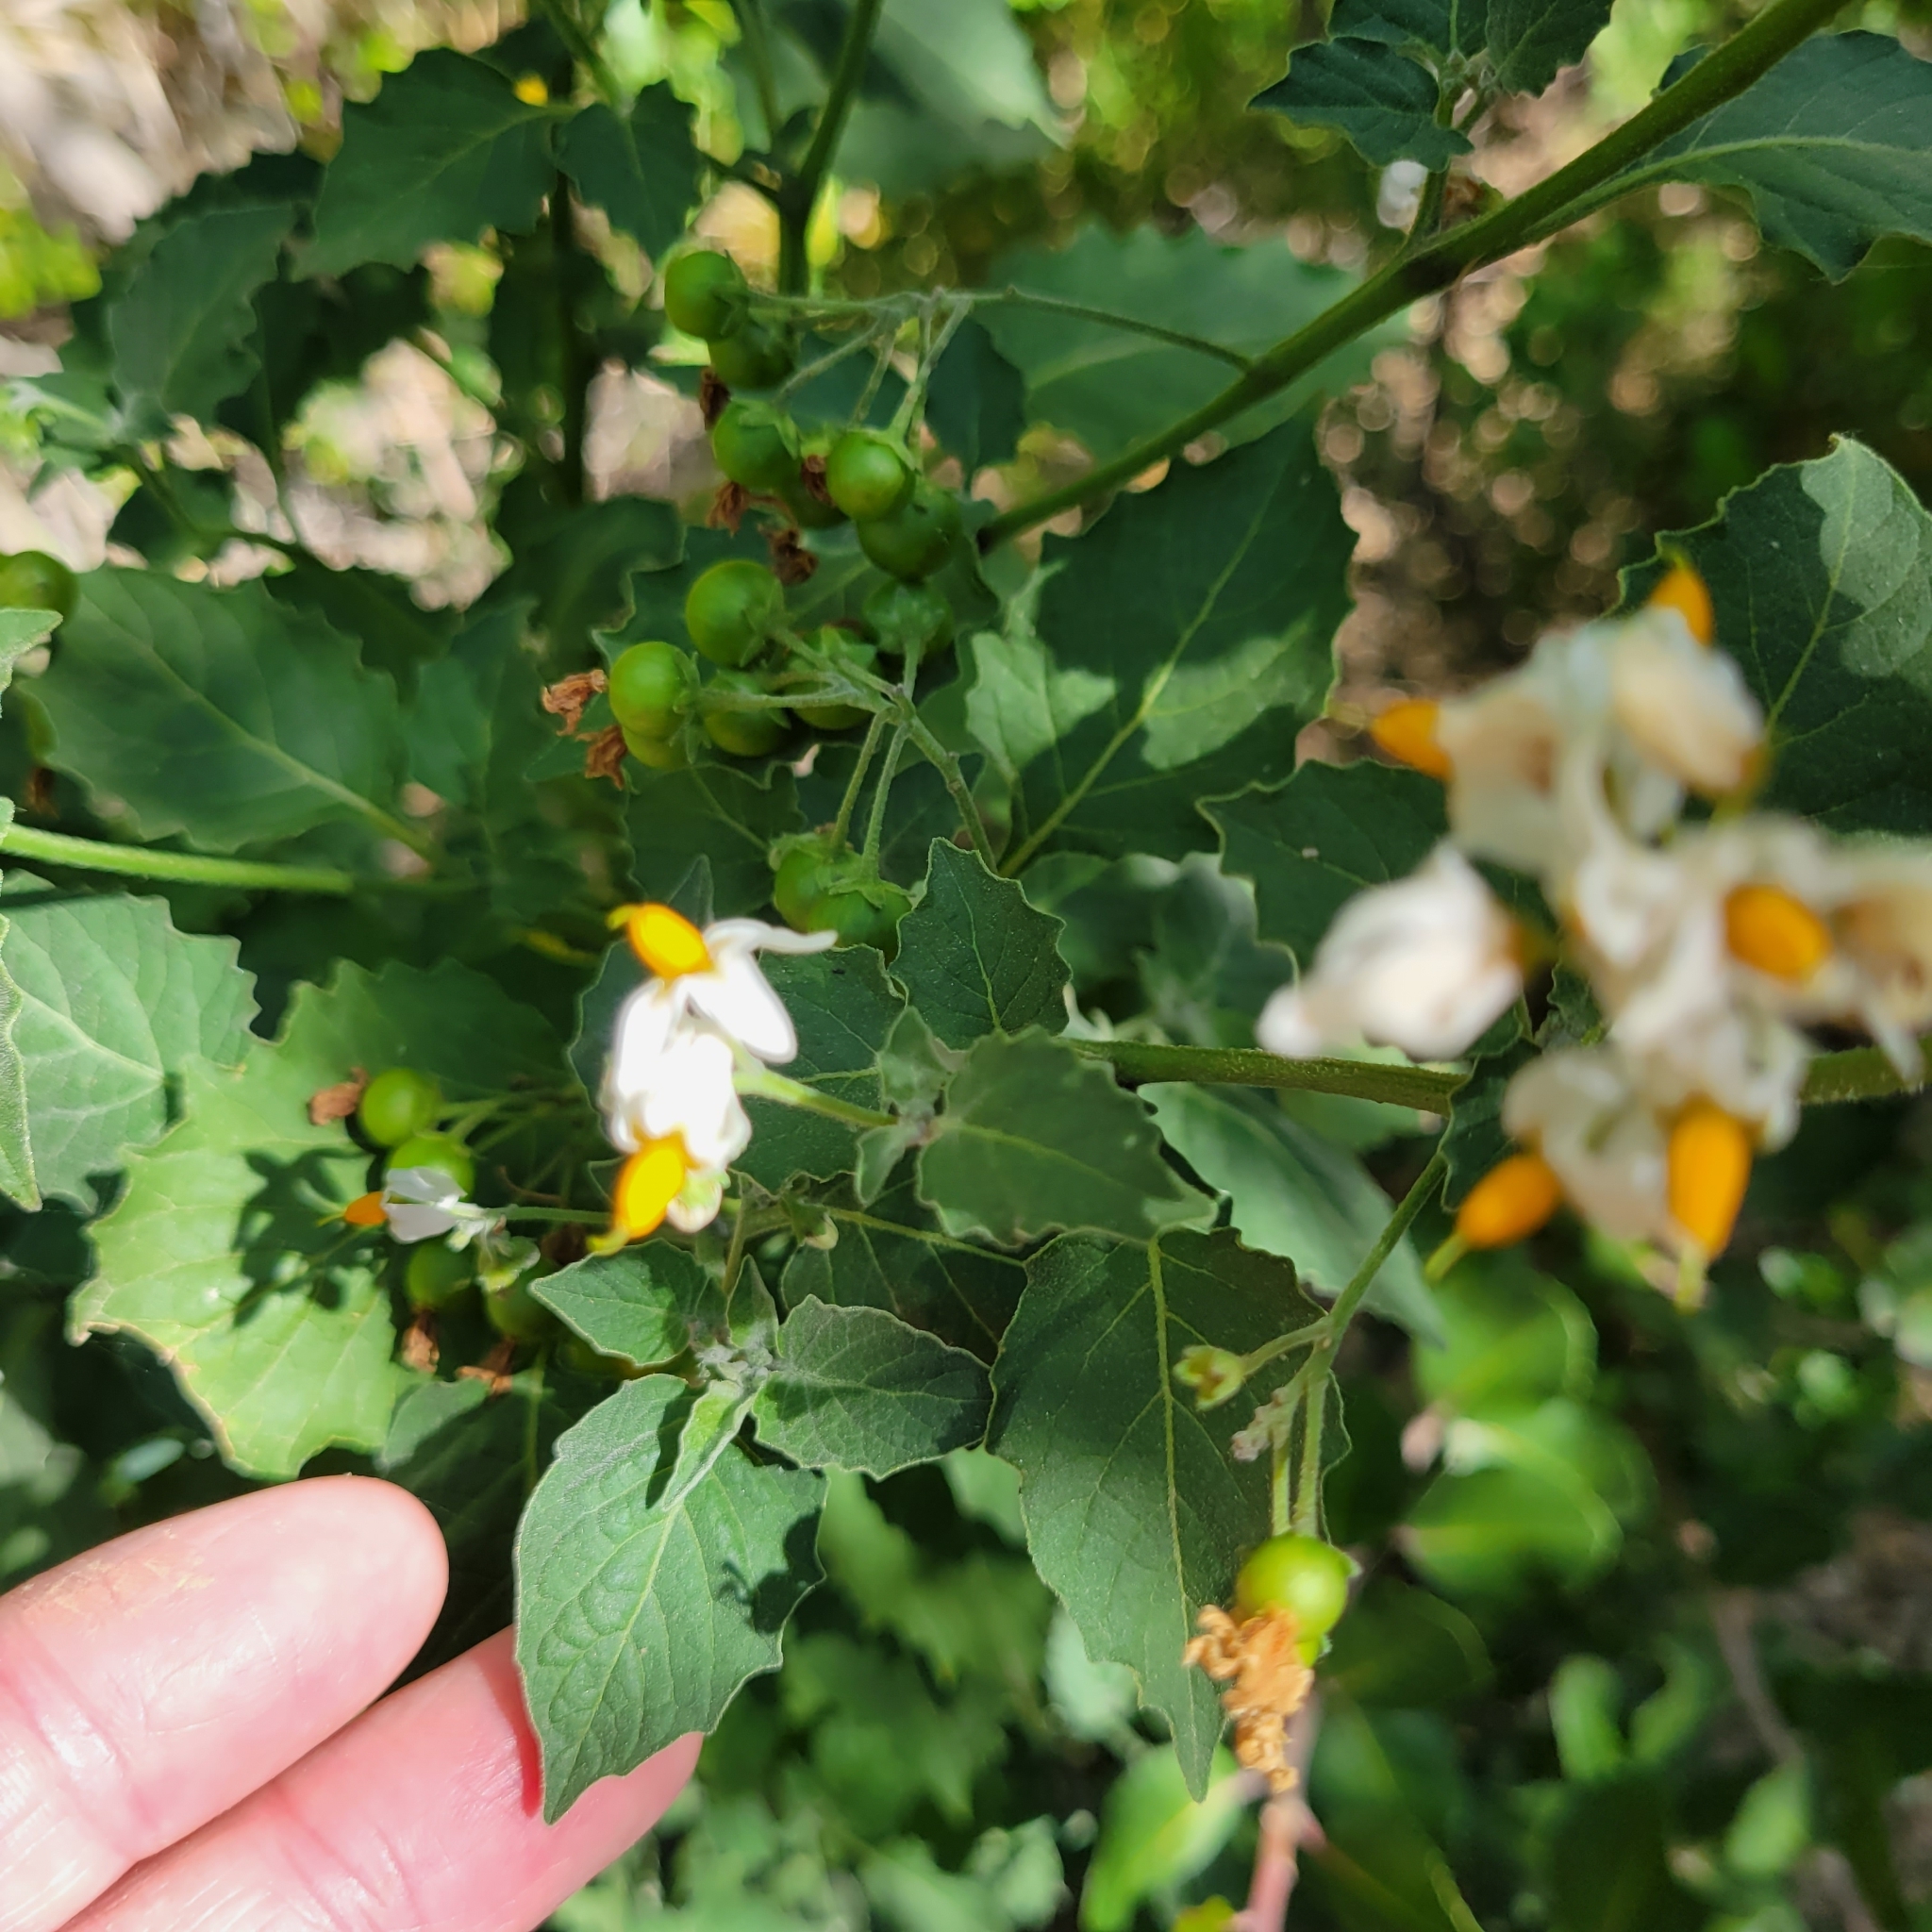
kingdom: Plantae
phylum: Tracheophyta
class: Magnoliopsida
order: Solanales
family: Solanaceae
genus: Solanum
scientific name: Solanum douglasii
